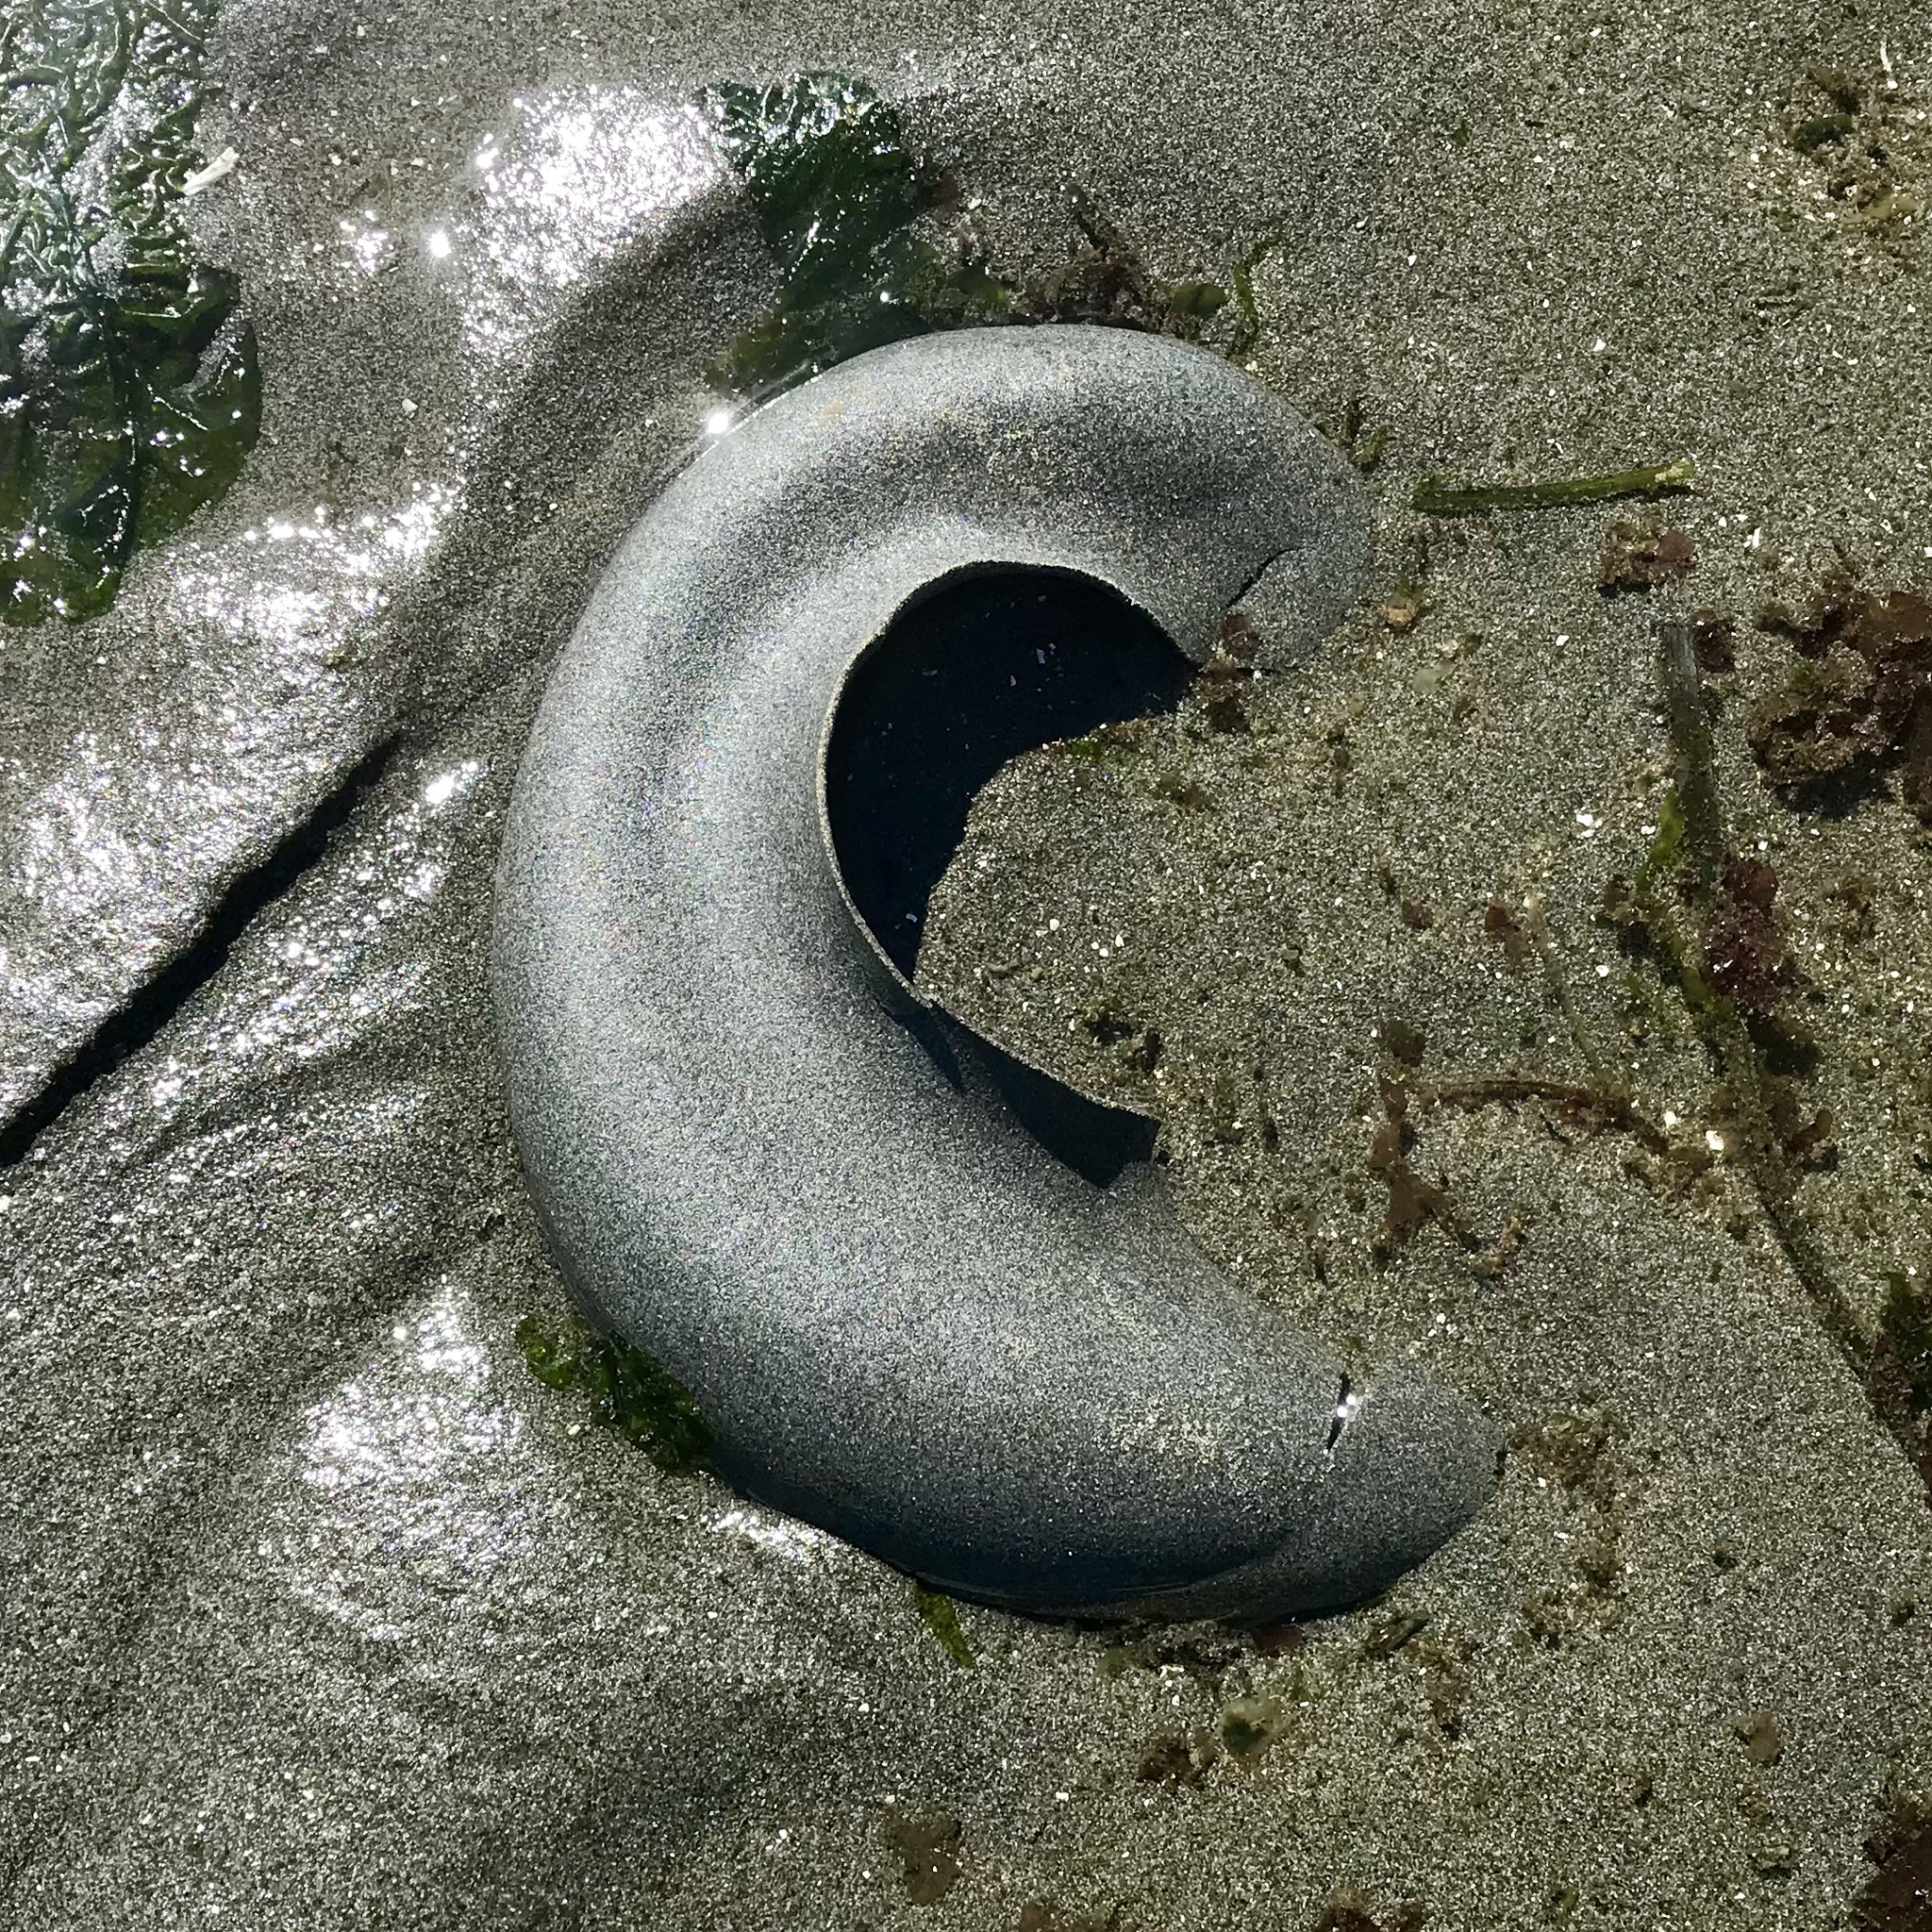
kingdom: Animalia
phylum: Mollusca
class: Gastropoda
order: Littorinimorpha
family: Naticidae
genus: Neverita
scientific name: Neverita lewisii
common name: Lewis' moonsnail
